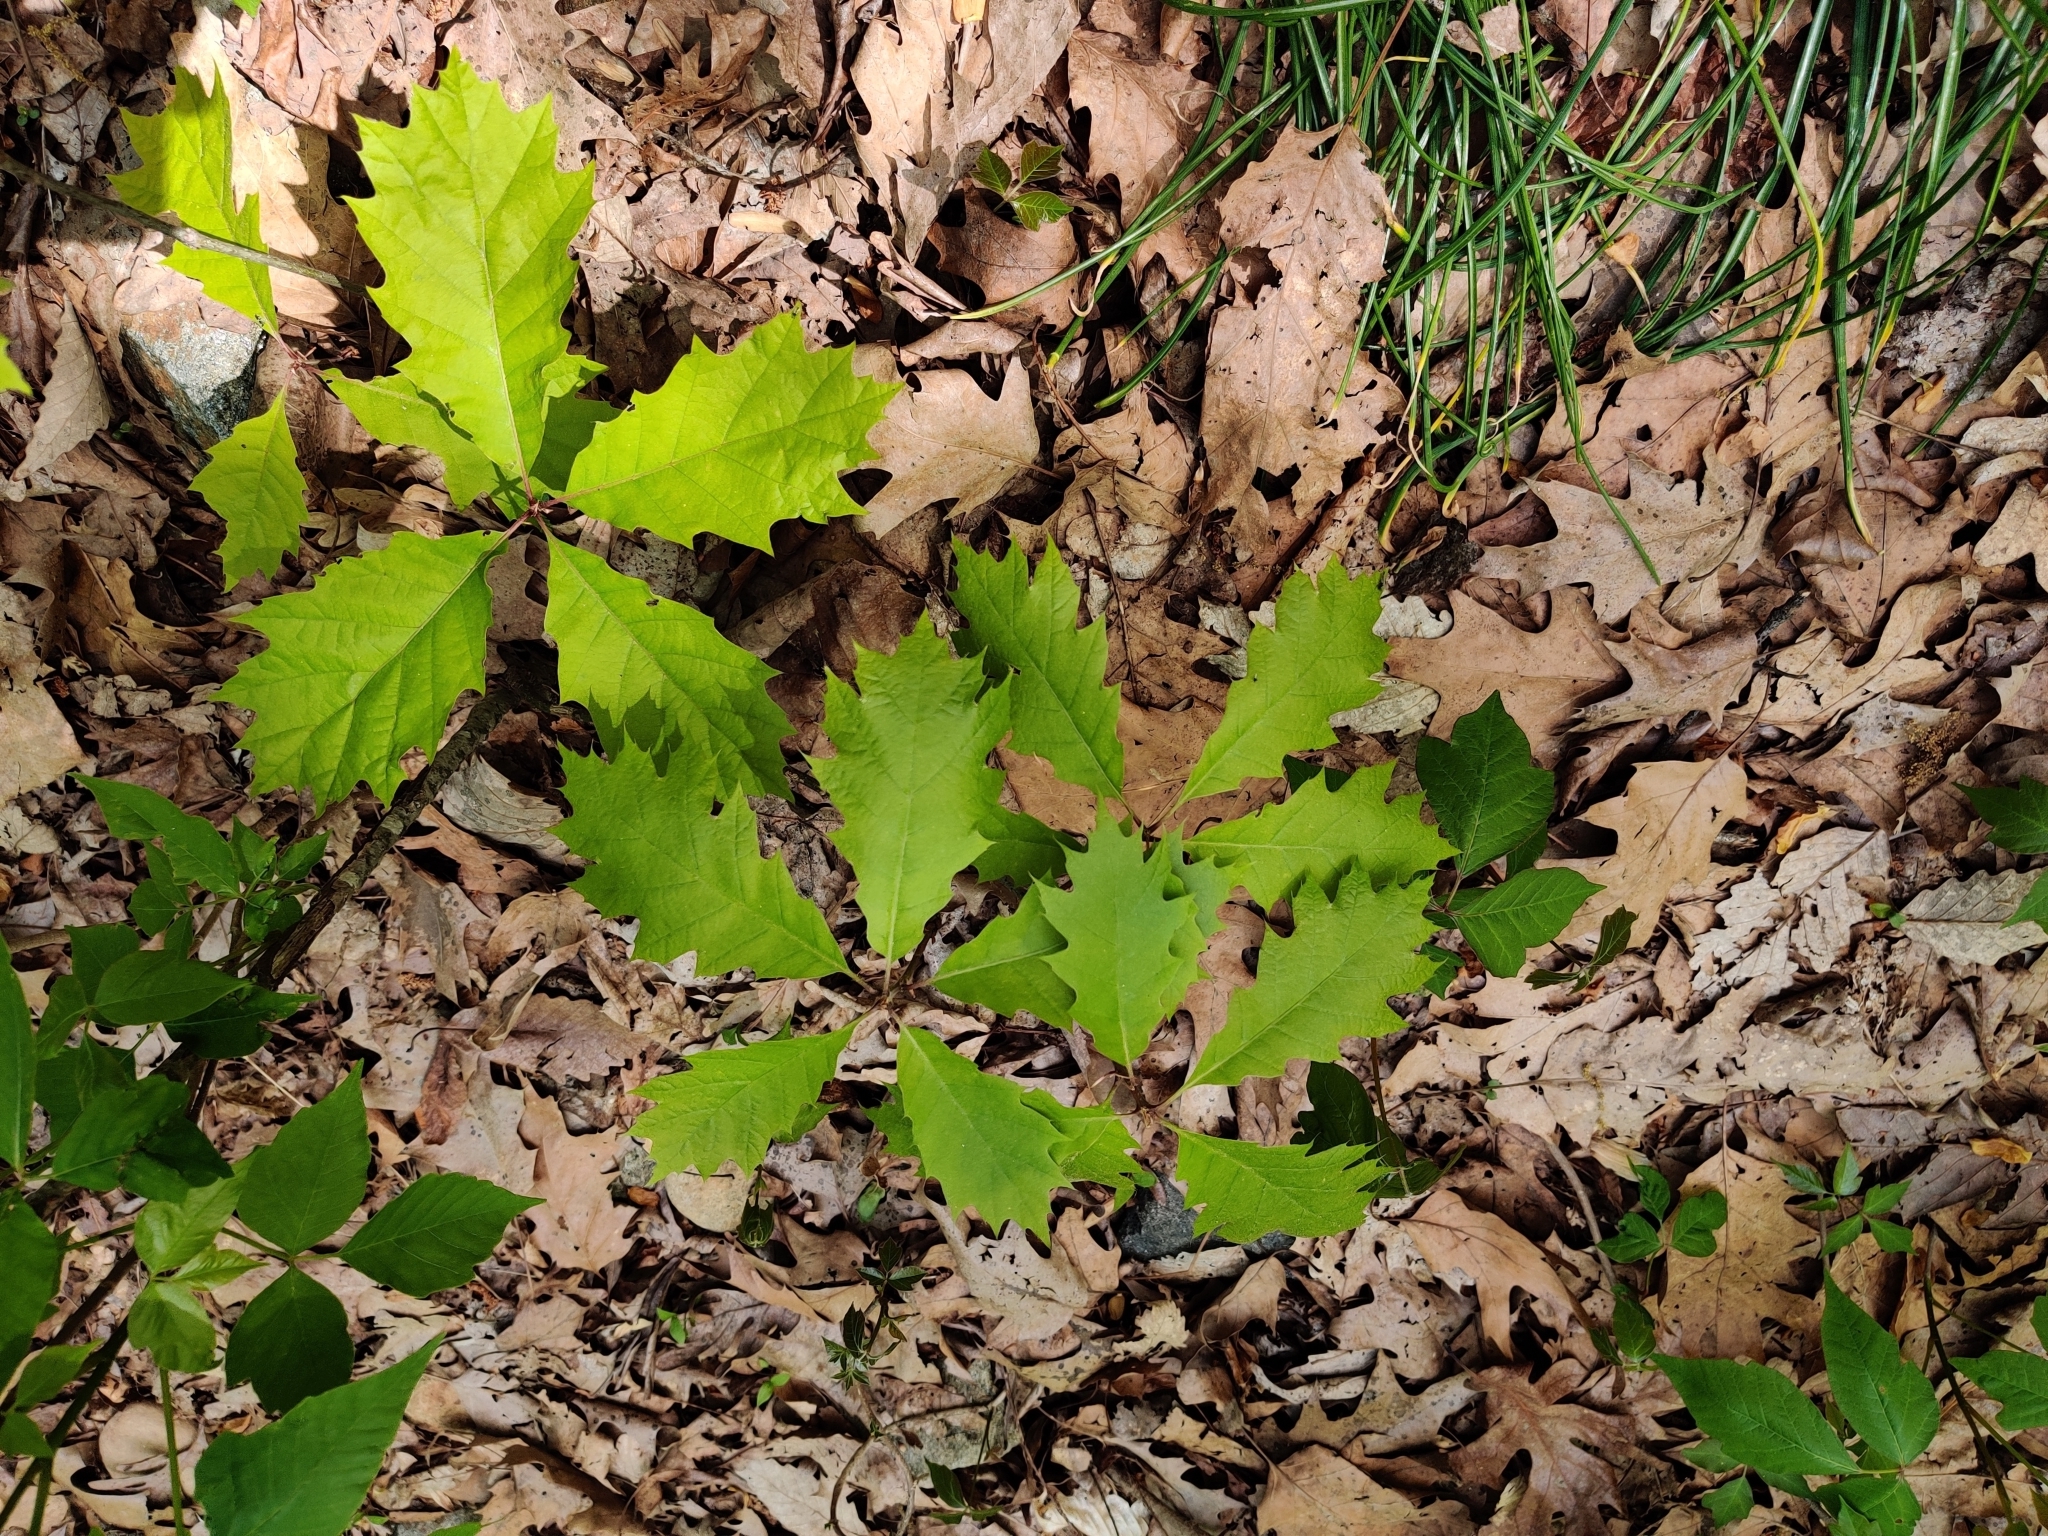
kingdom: Plantae
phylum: Tracheophyta
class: Magnoliopsida
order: Fagales
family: Fagaceae
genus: Quercus
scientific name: Quercus rubra
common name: Red oak
